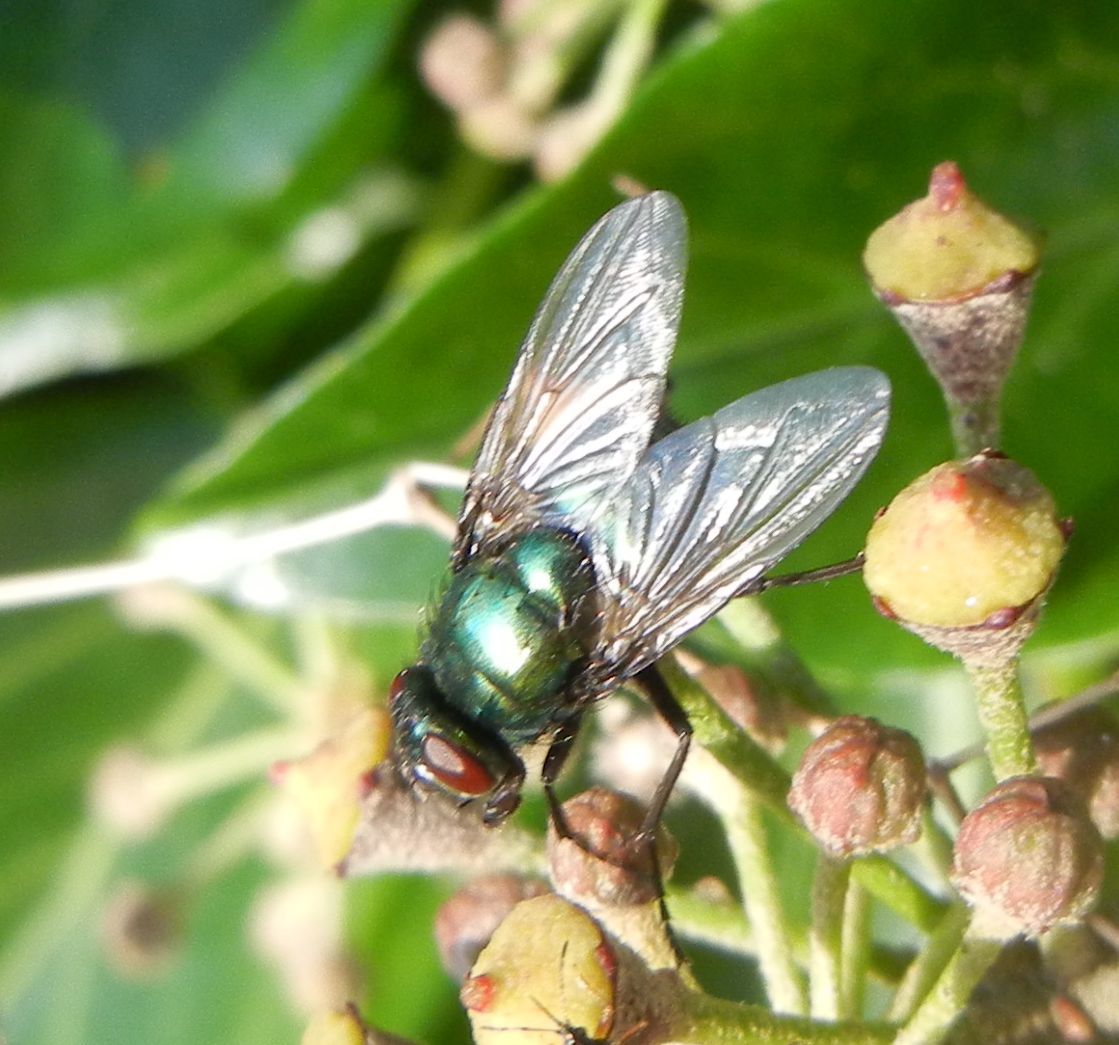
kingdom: Animalia
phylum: Arthropoda
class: Insecta
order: Diptera
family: Muscidae
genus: Neomyia
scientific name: Neomyia cornicina
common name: House fly
